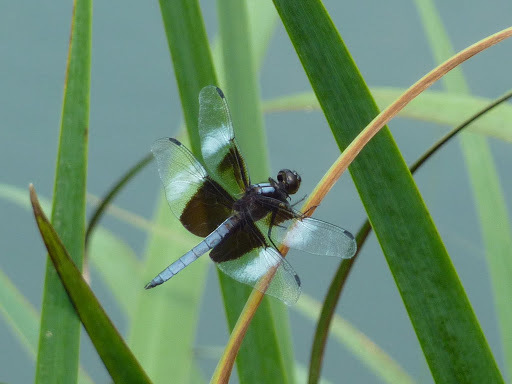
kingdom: Animalia
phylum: Arthropoda
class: Insecta
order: Odonata
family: Libellulidae
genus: Libellula
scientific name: Libellula luctuosa
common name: Widow skimmer
